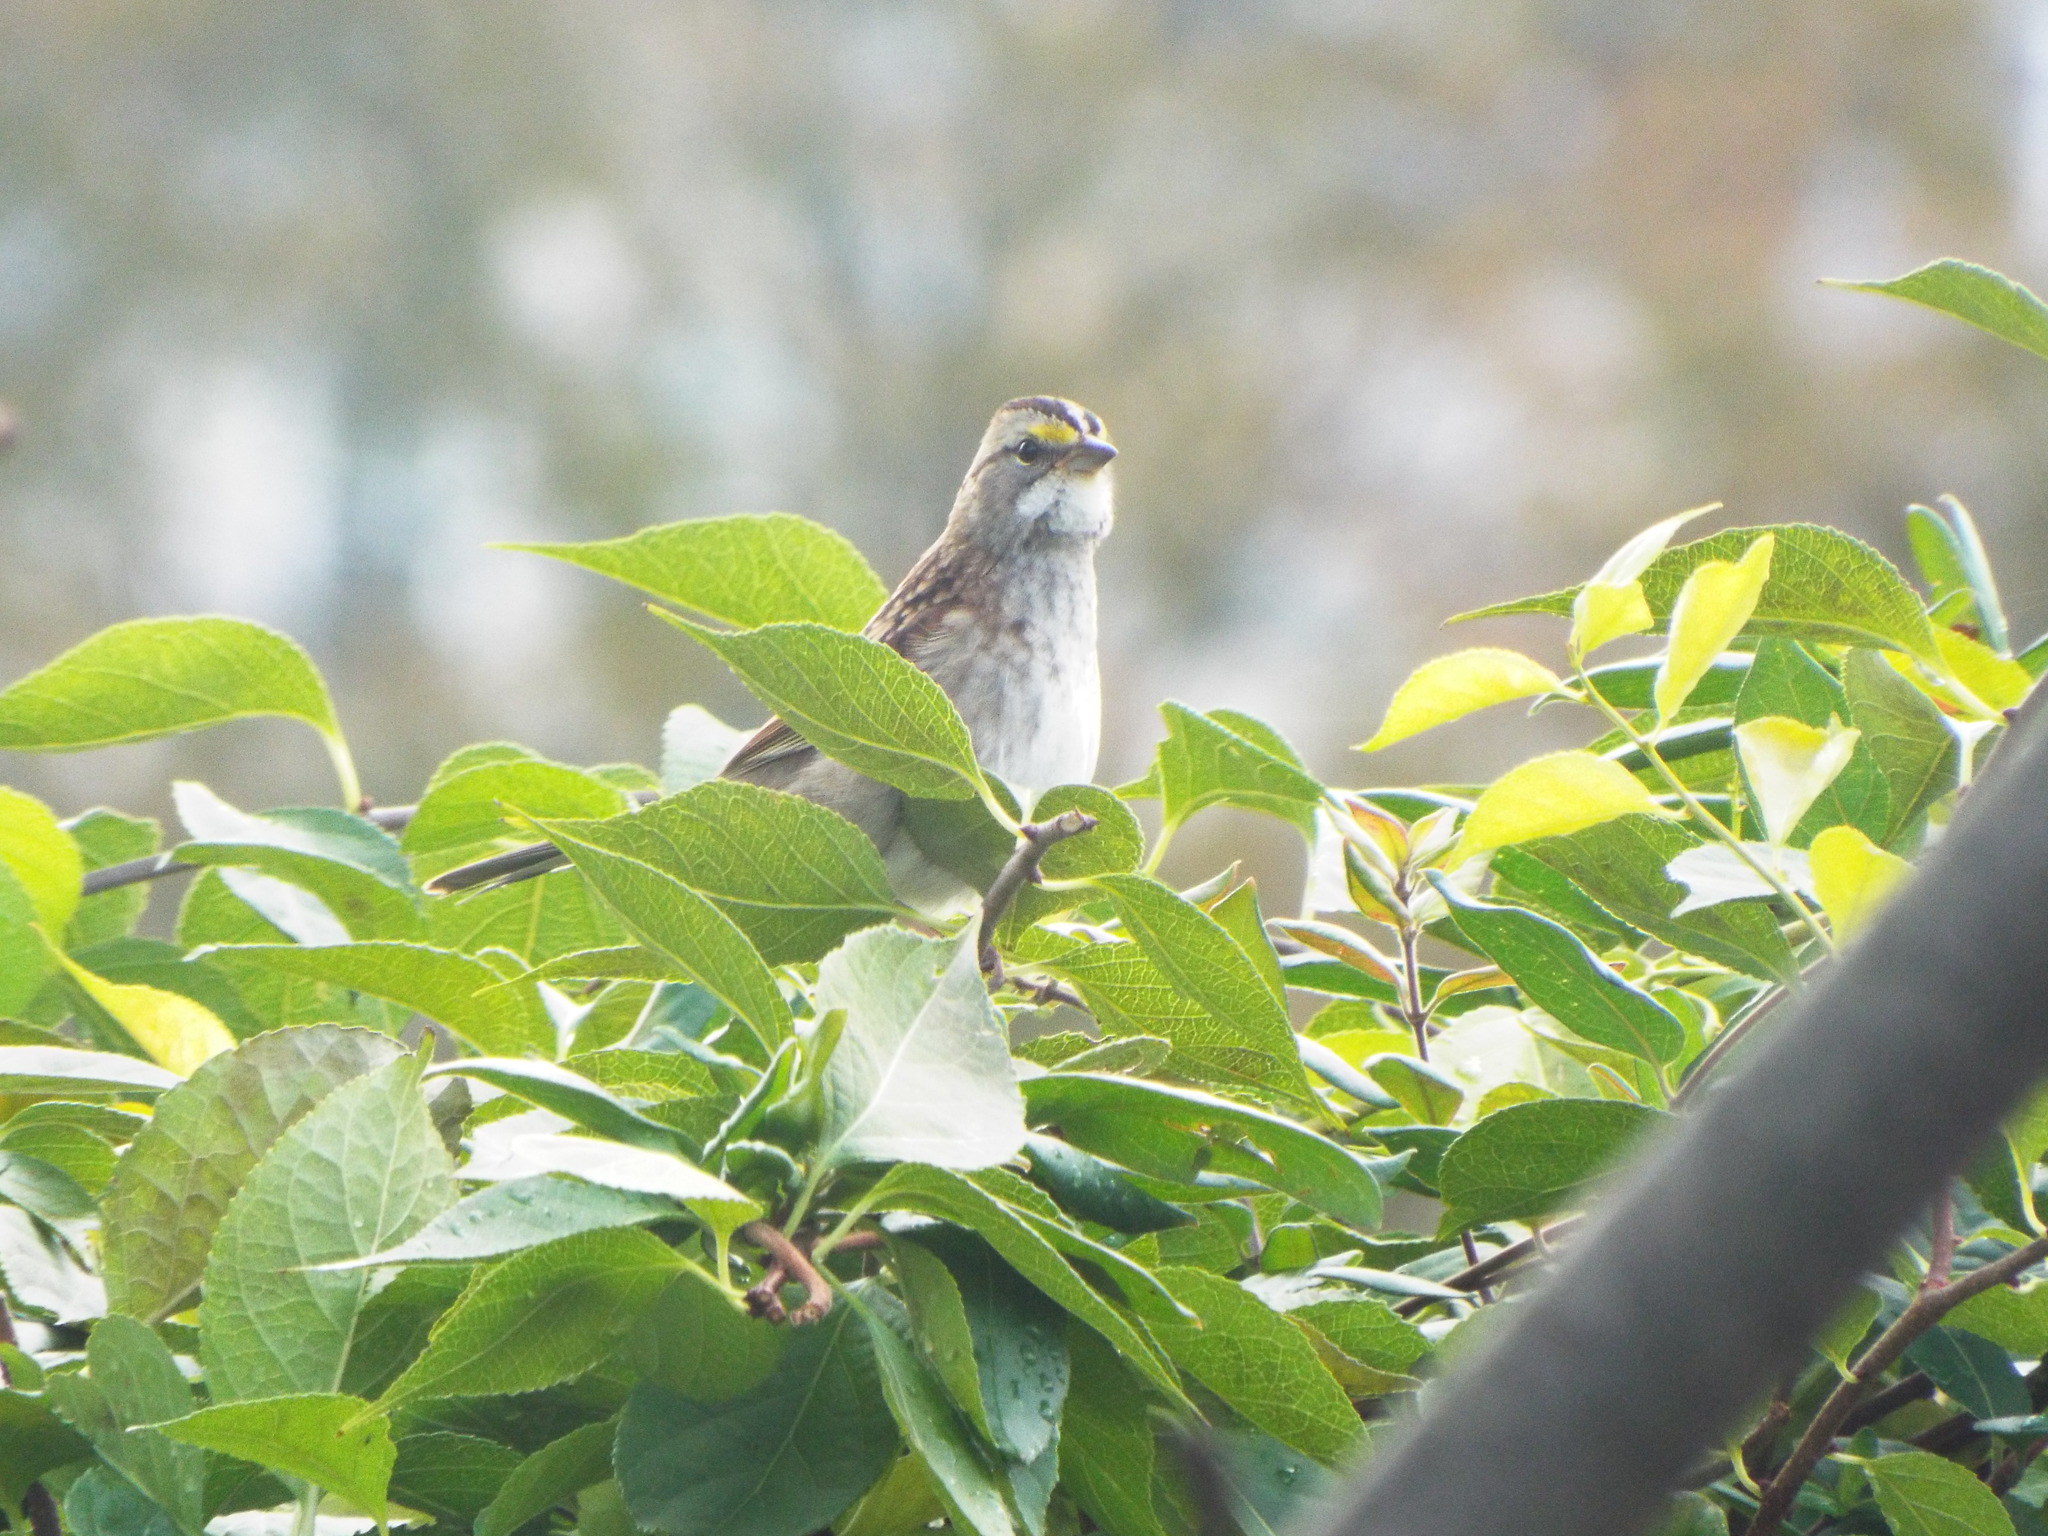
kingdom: Animalia
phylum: Chordata
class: Aves
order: Passeriformes
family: Passerellidae
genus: Zonotrichia
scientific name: Zonotrichia albicollis
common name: White-throated sparrow
